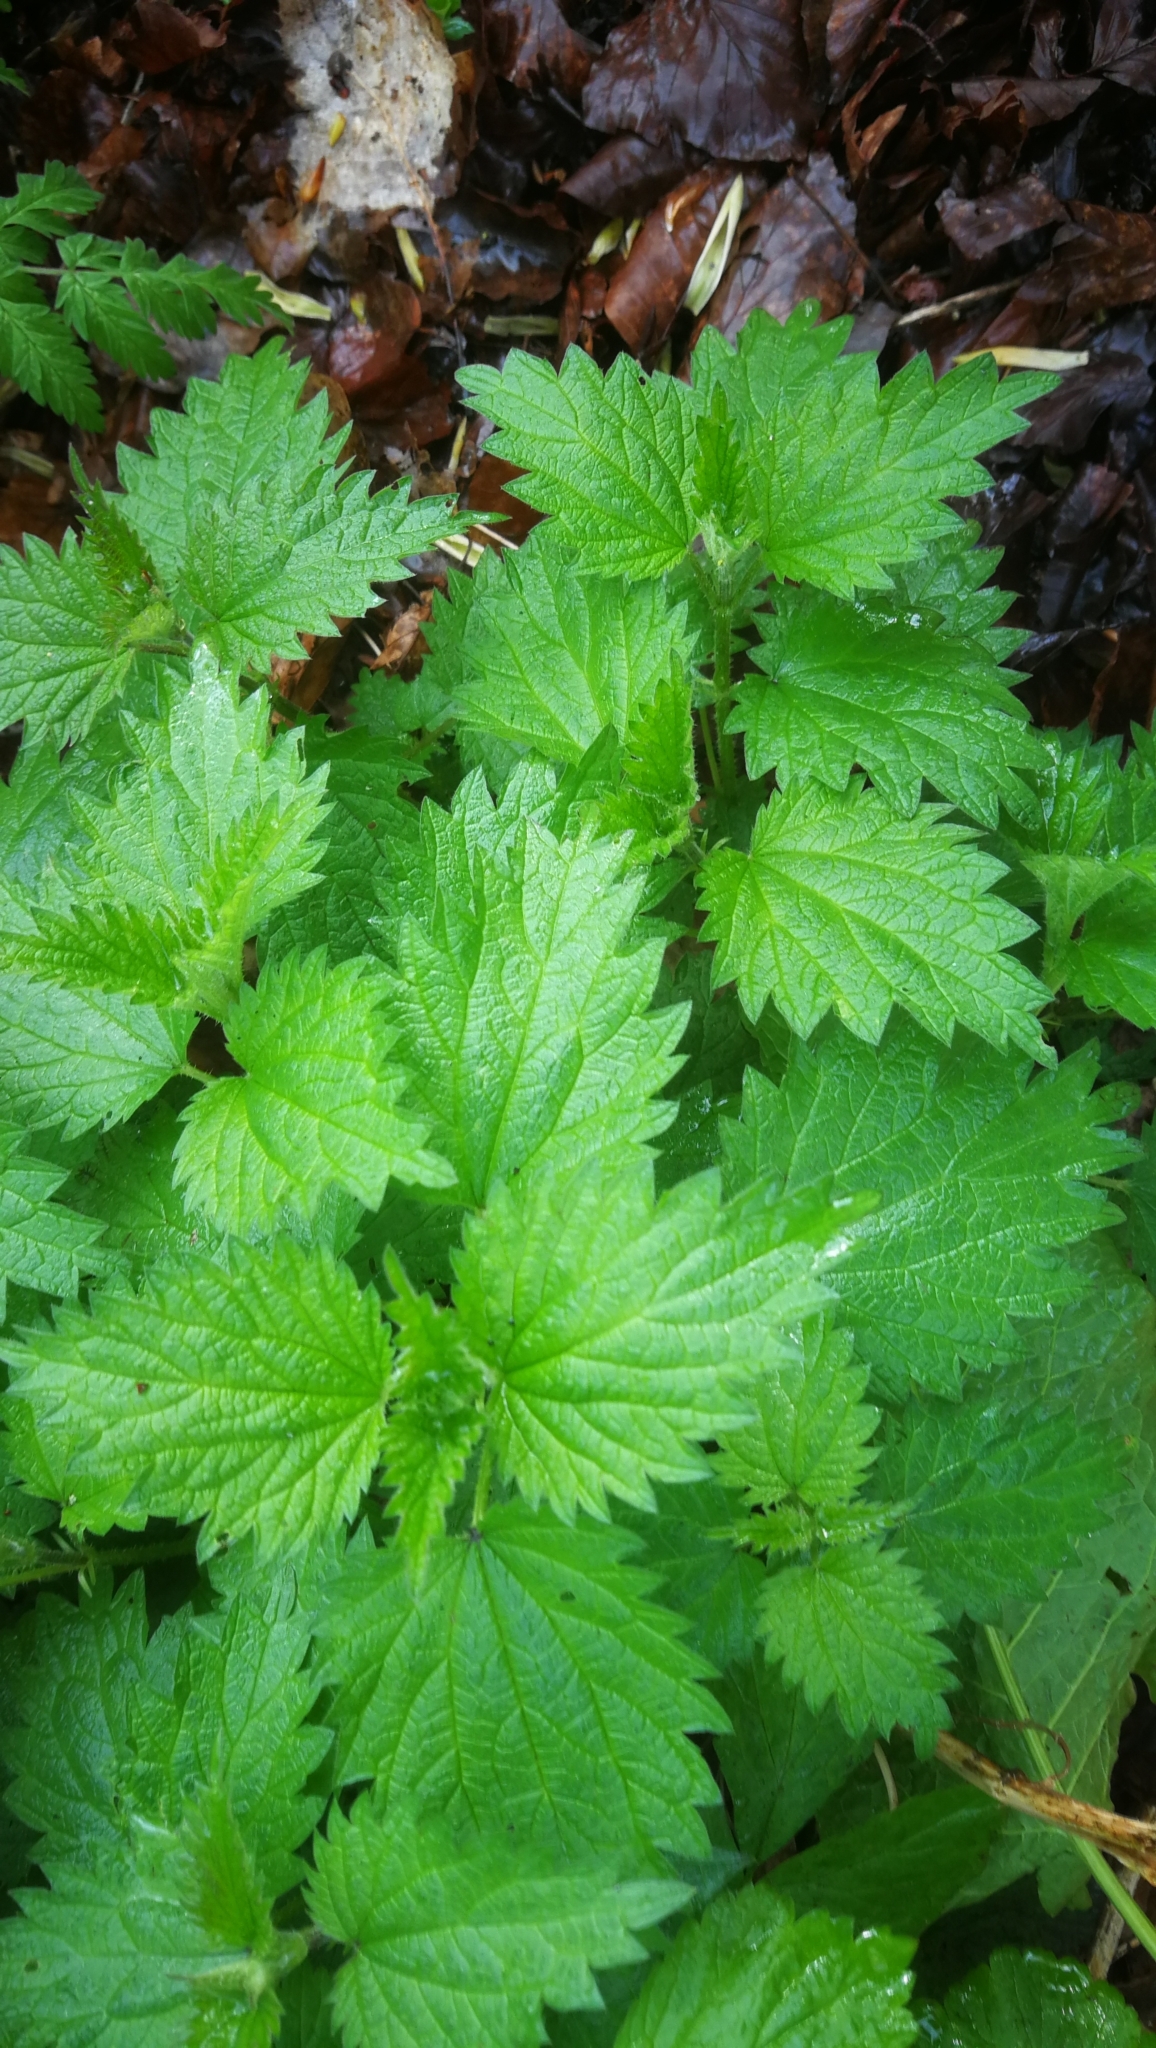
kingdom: Plantae
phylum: Tracheophyta
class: Magnoliopsida
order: Rosales
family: Urticaceae
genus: Urtica
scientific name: Urtica dioica
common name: Common nettle
